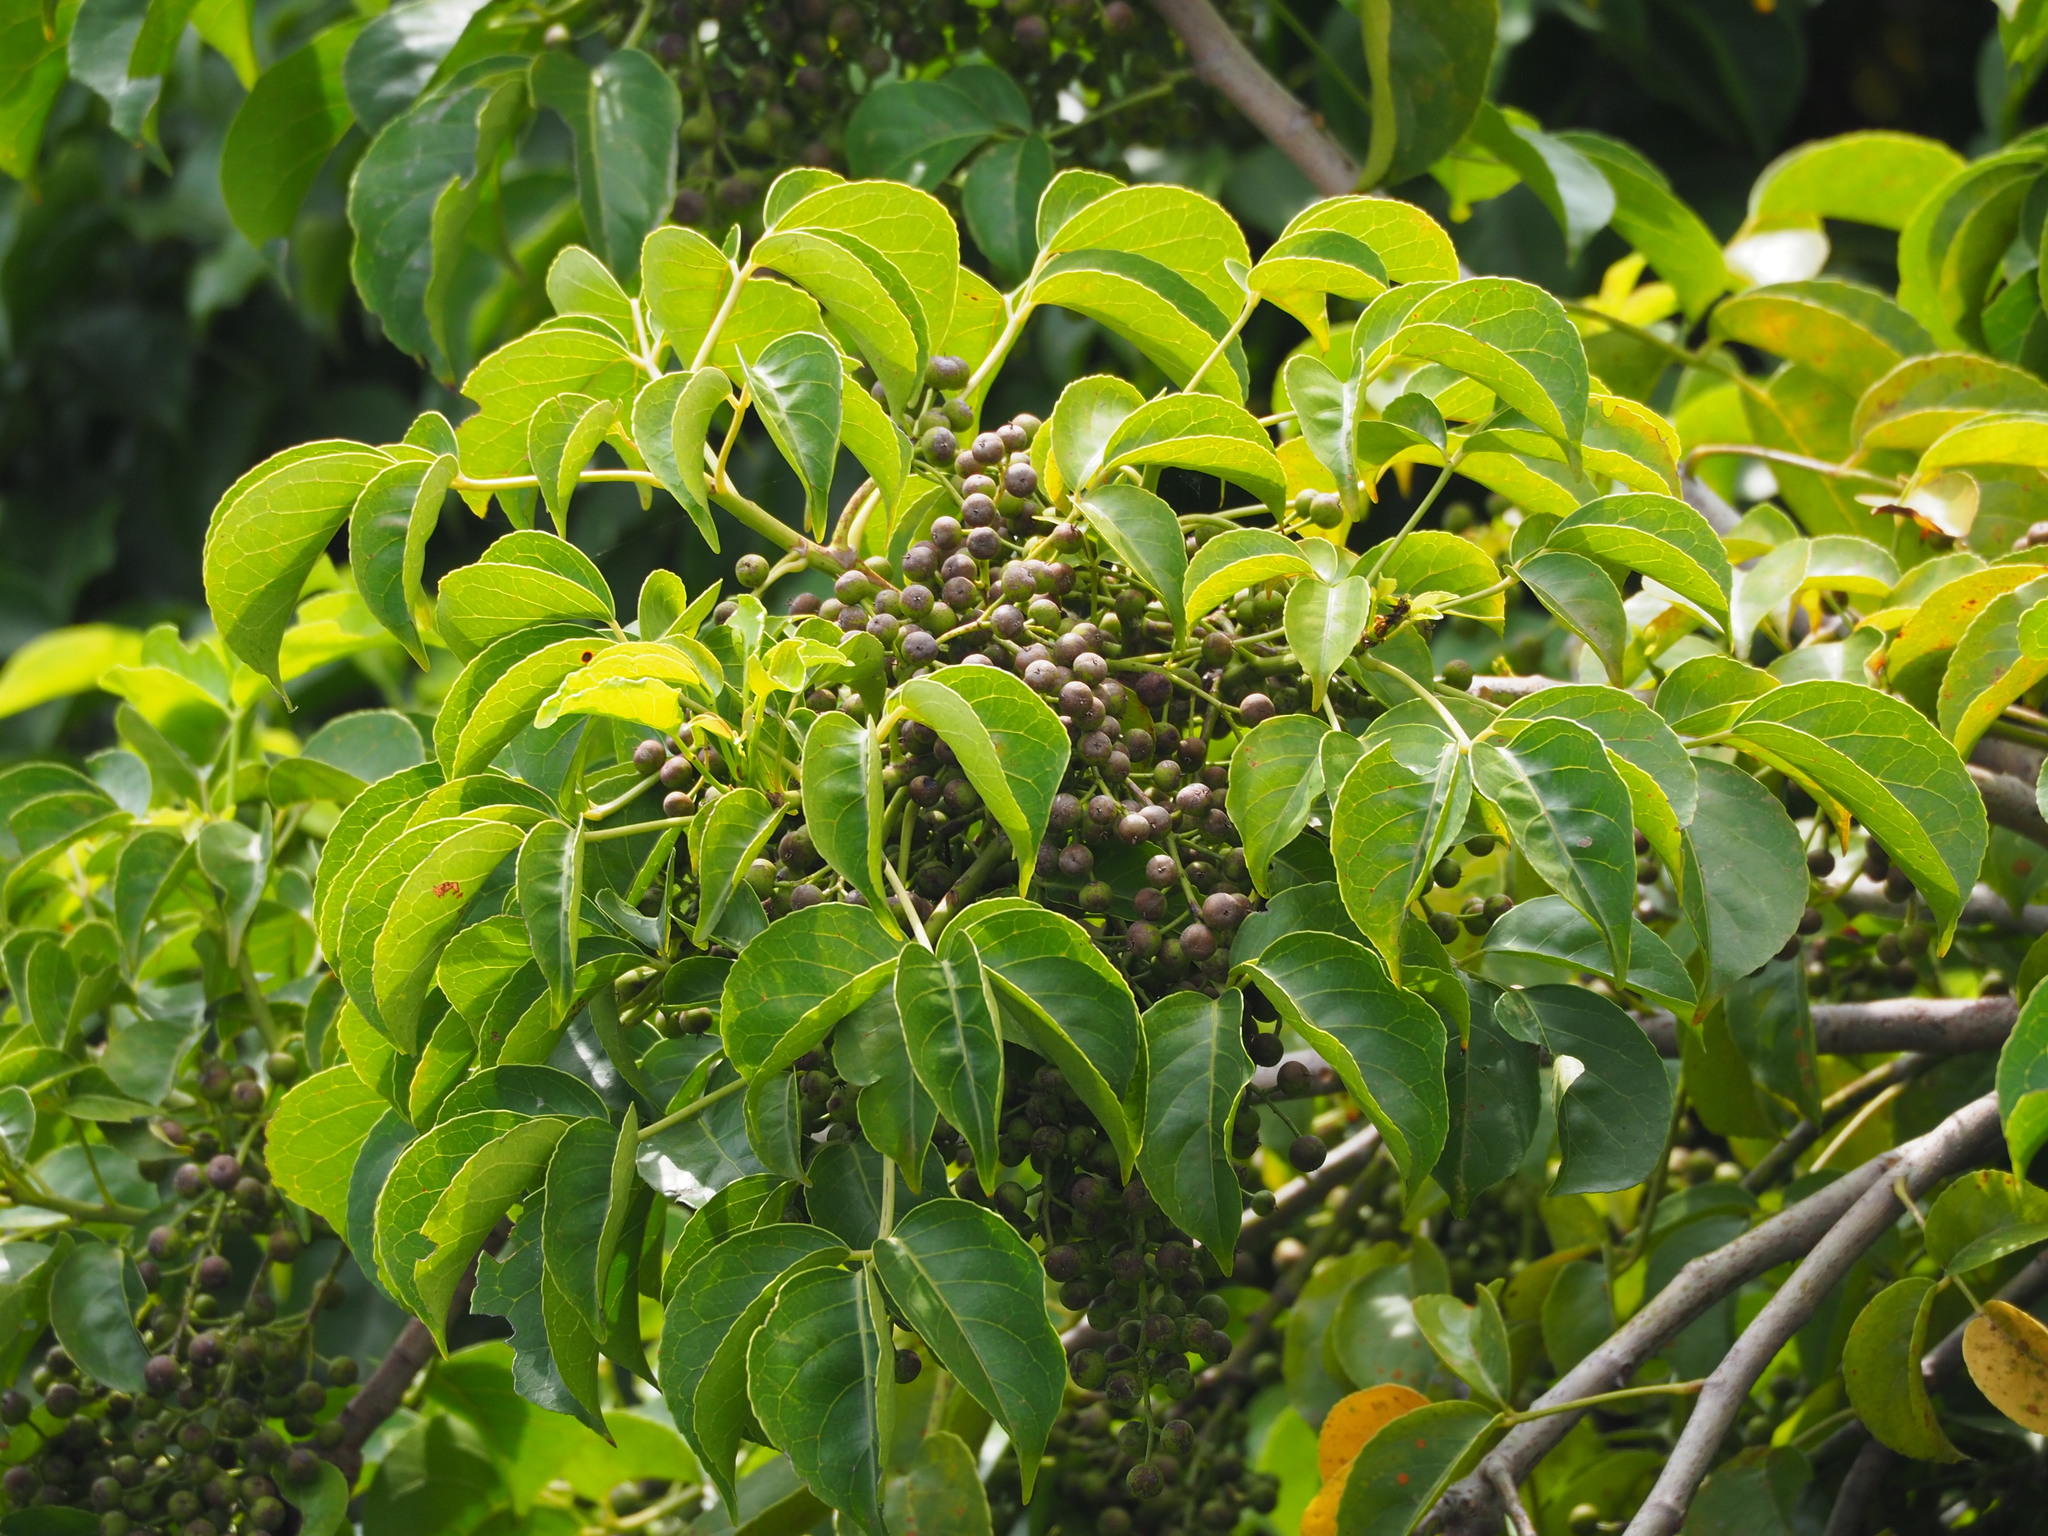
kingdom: Plantae
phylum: Tracheophyta
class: Magnoliopsida
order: Malpighiales
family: Phyllanthaceae
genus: Bischofia
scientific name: Bischofia javanica
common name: Javanese bishopwood
